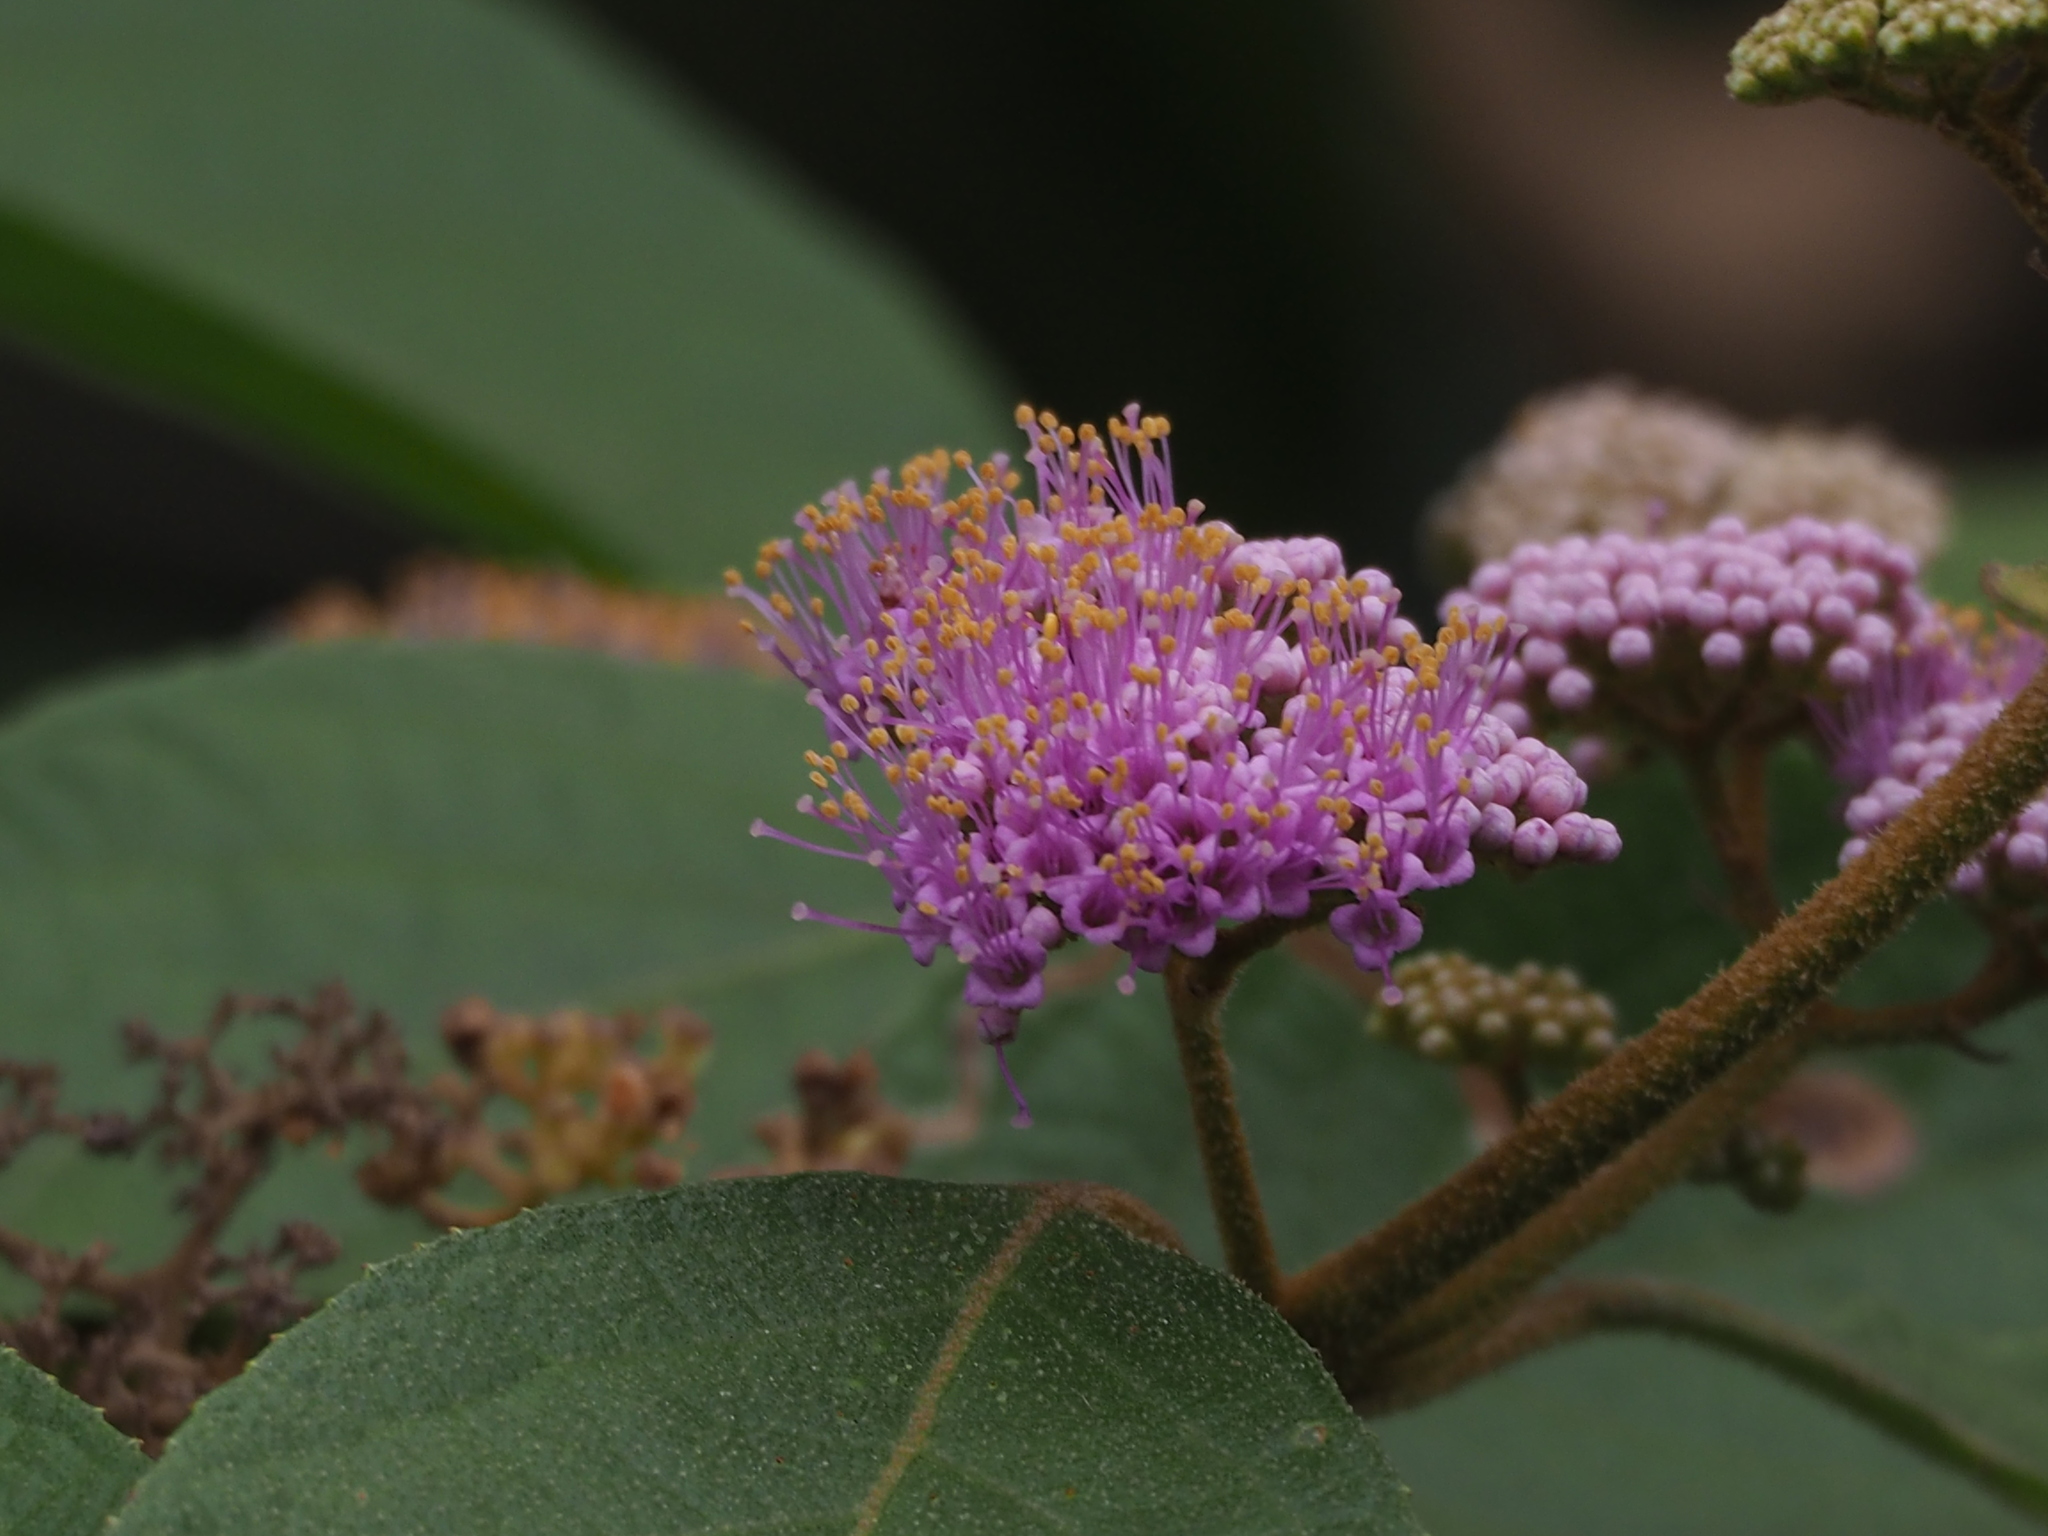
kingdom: Plantae
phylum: Tracheophyta
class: Magnoliopsida
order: Lamiales
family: Lamiaceae
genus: Callicarpa
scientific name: Callicarpa pedunculata
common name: Velvetleaf
